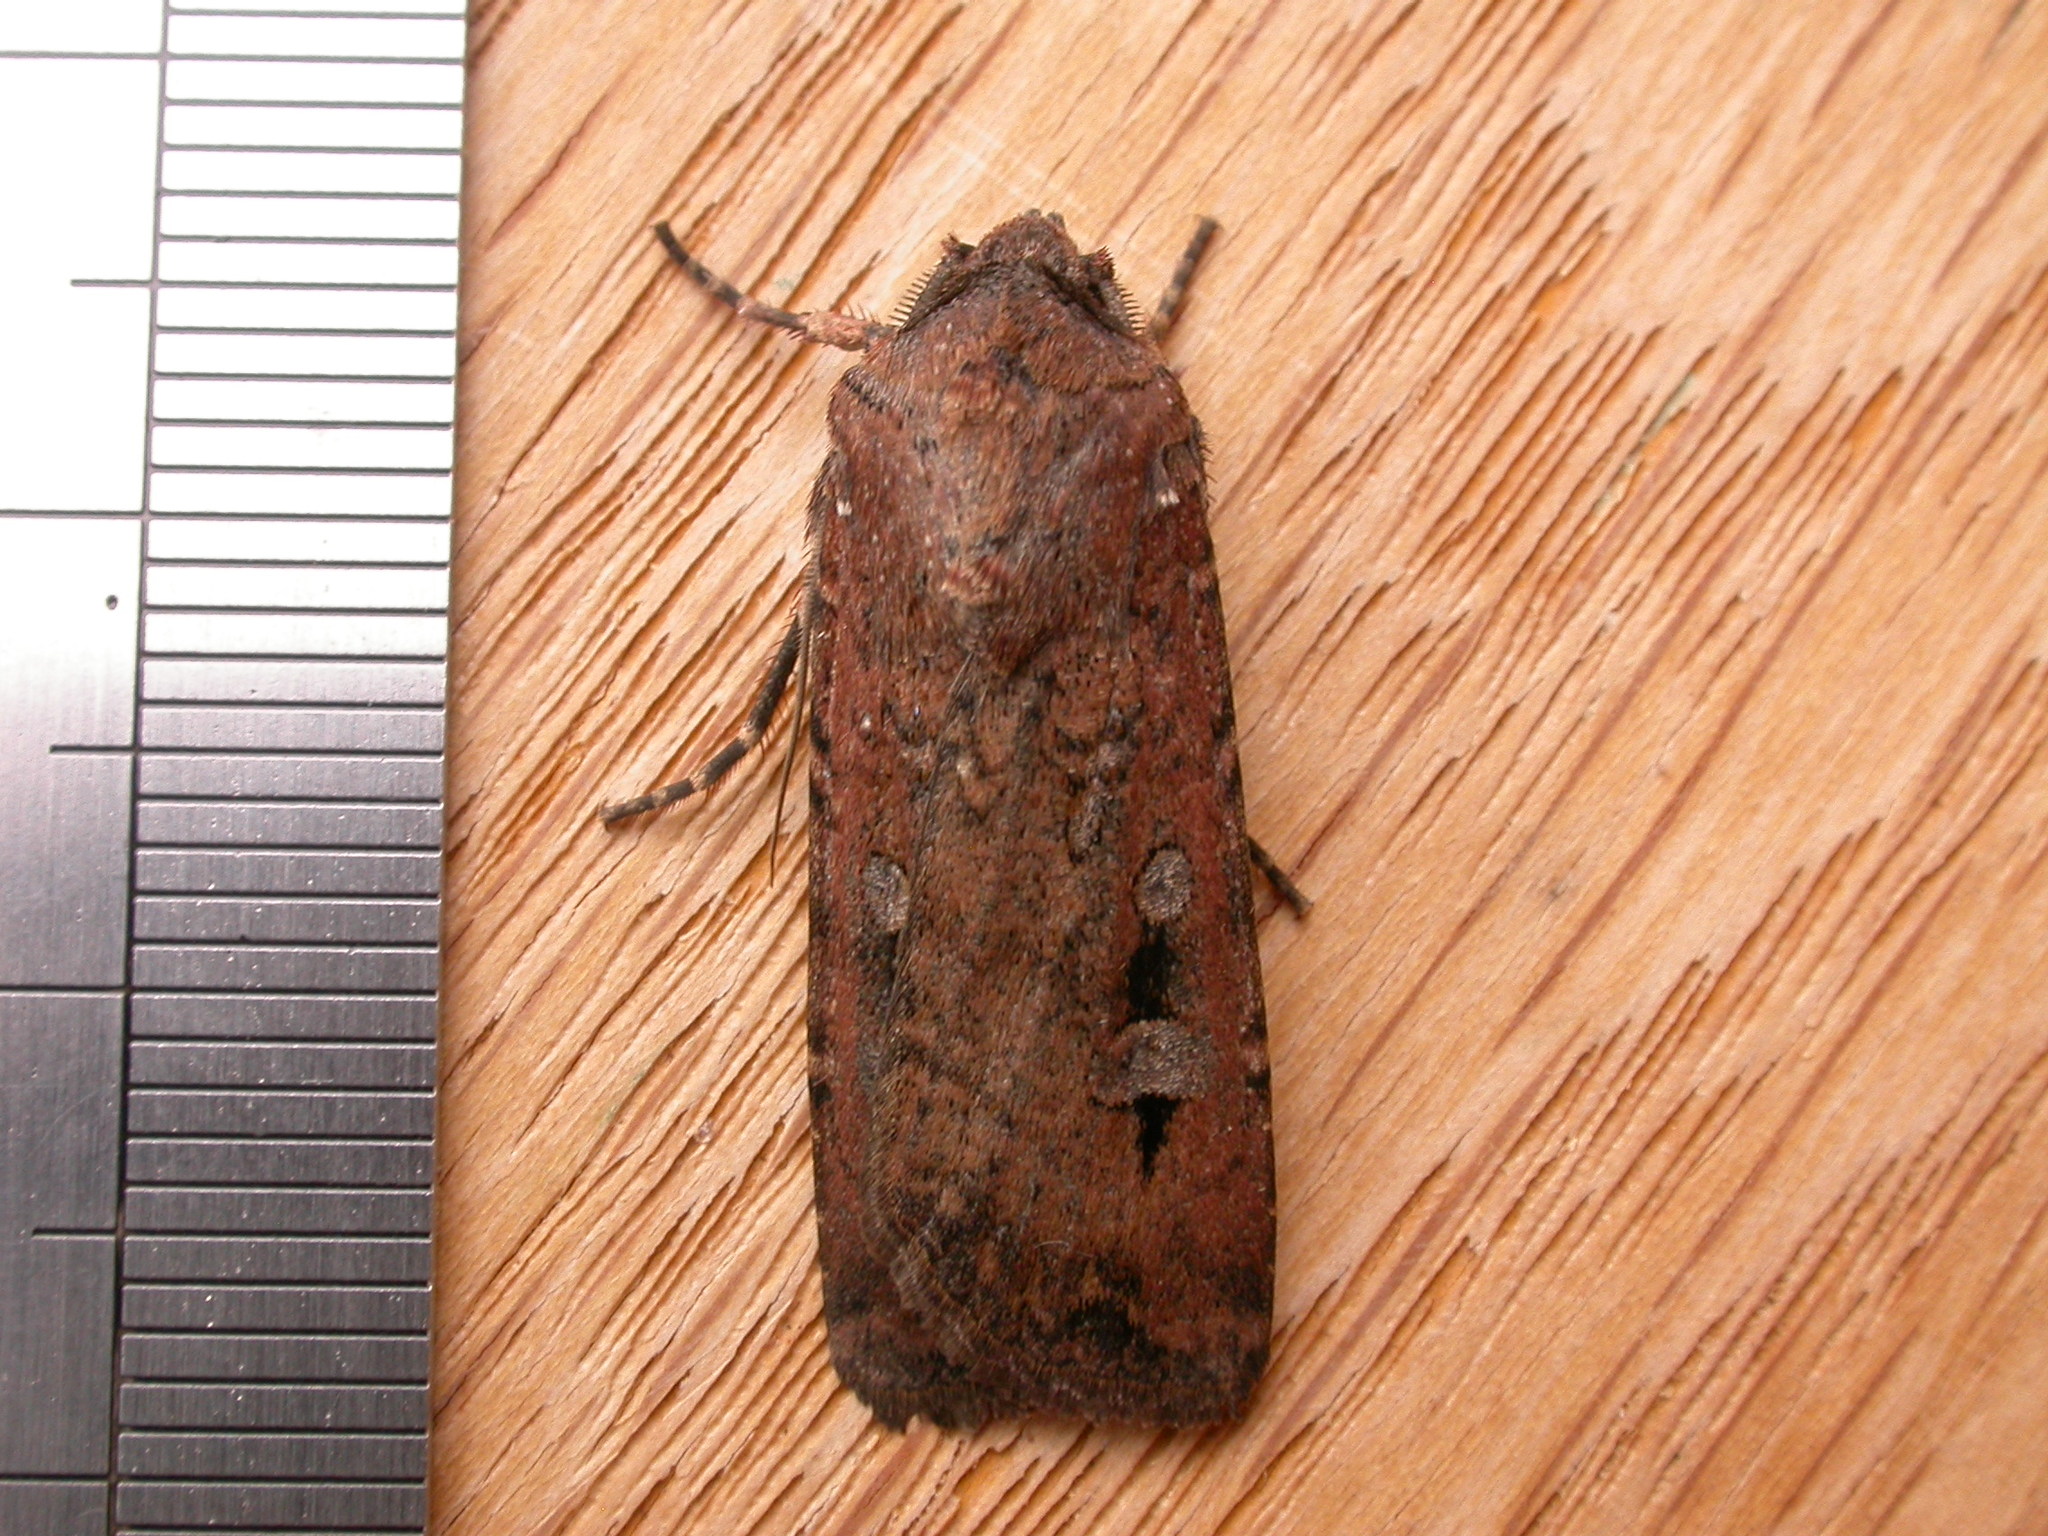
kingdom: Animalia
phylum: Arthropoda
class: Insecta
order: Lepidoptera
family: Noctuidae
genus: Agrotis
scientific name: Agrotis infusa
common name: Bogong moth
